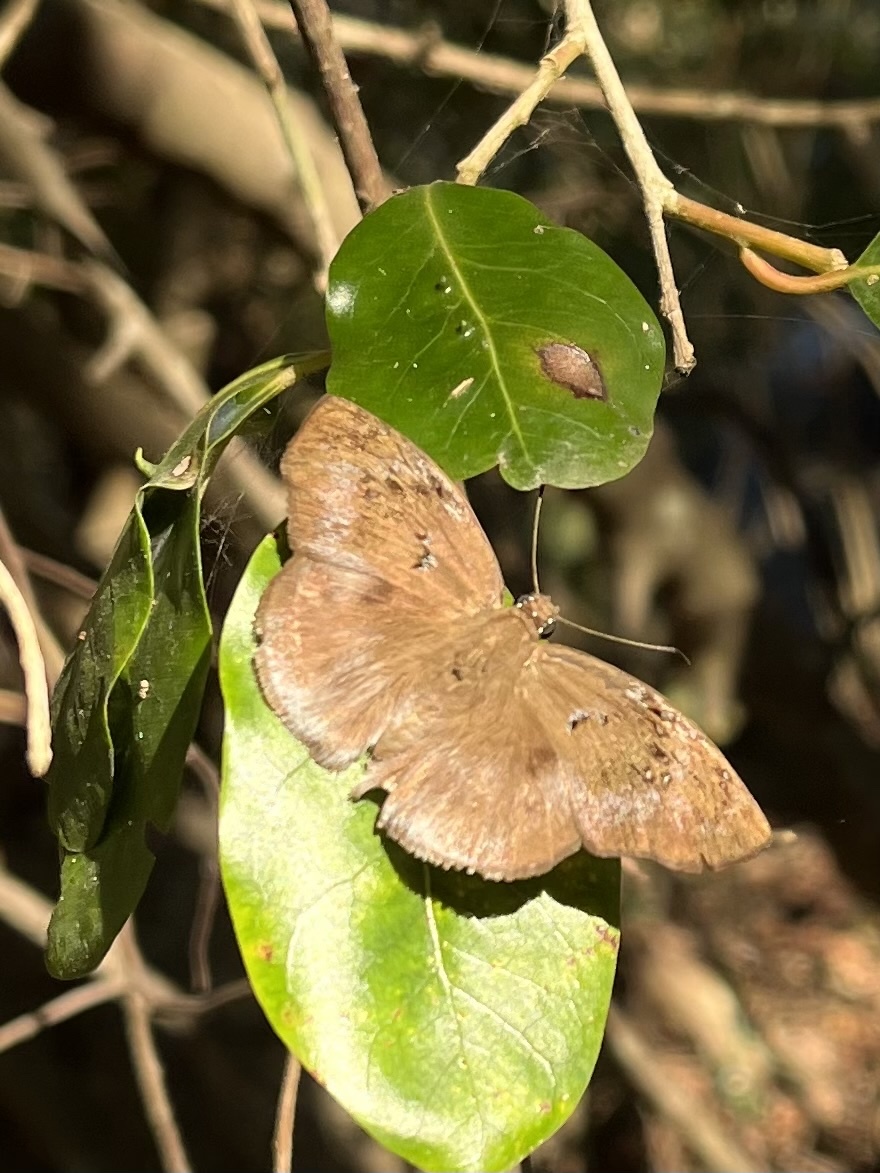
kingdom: Animalia
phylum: Arthropoda
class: Insecta
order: Lepidoptera
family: Hesperiidae
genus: Tagiades
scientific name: Tagiades flesus
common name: Clouded flat
